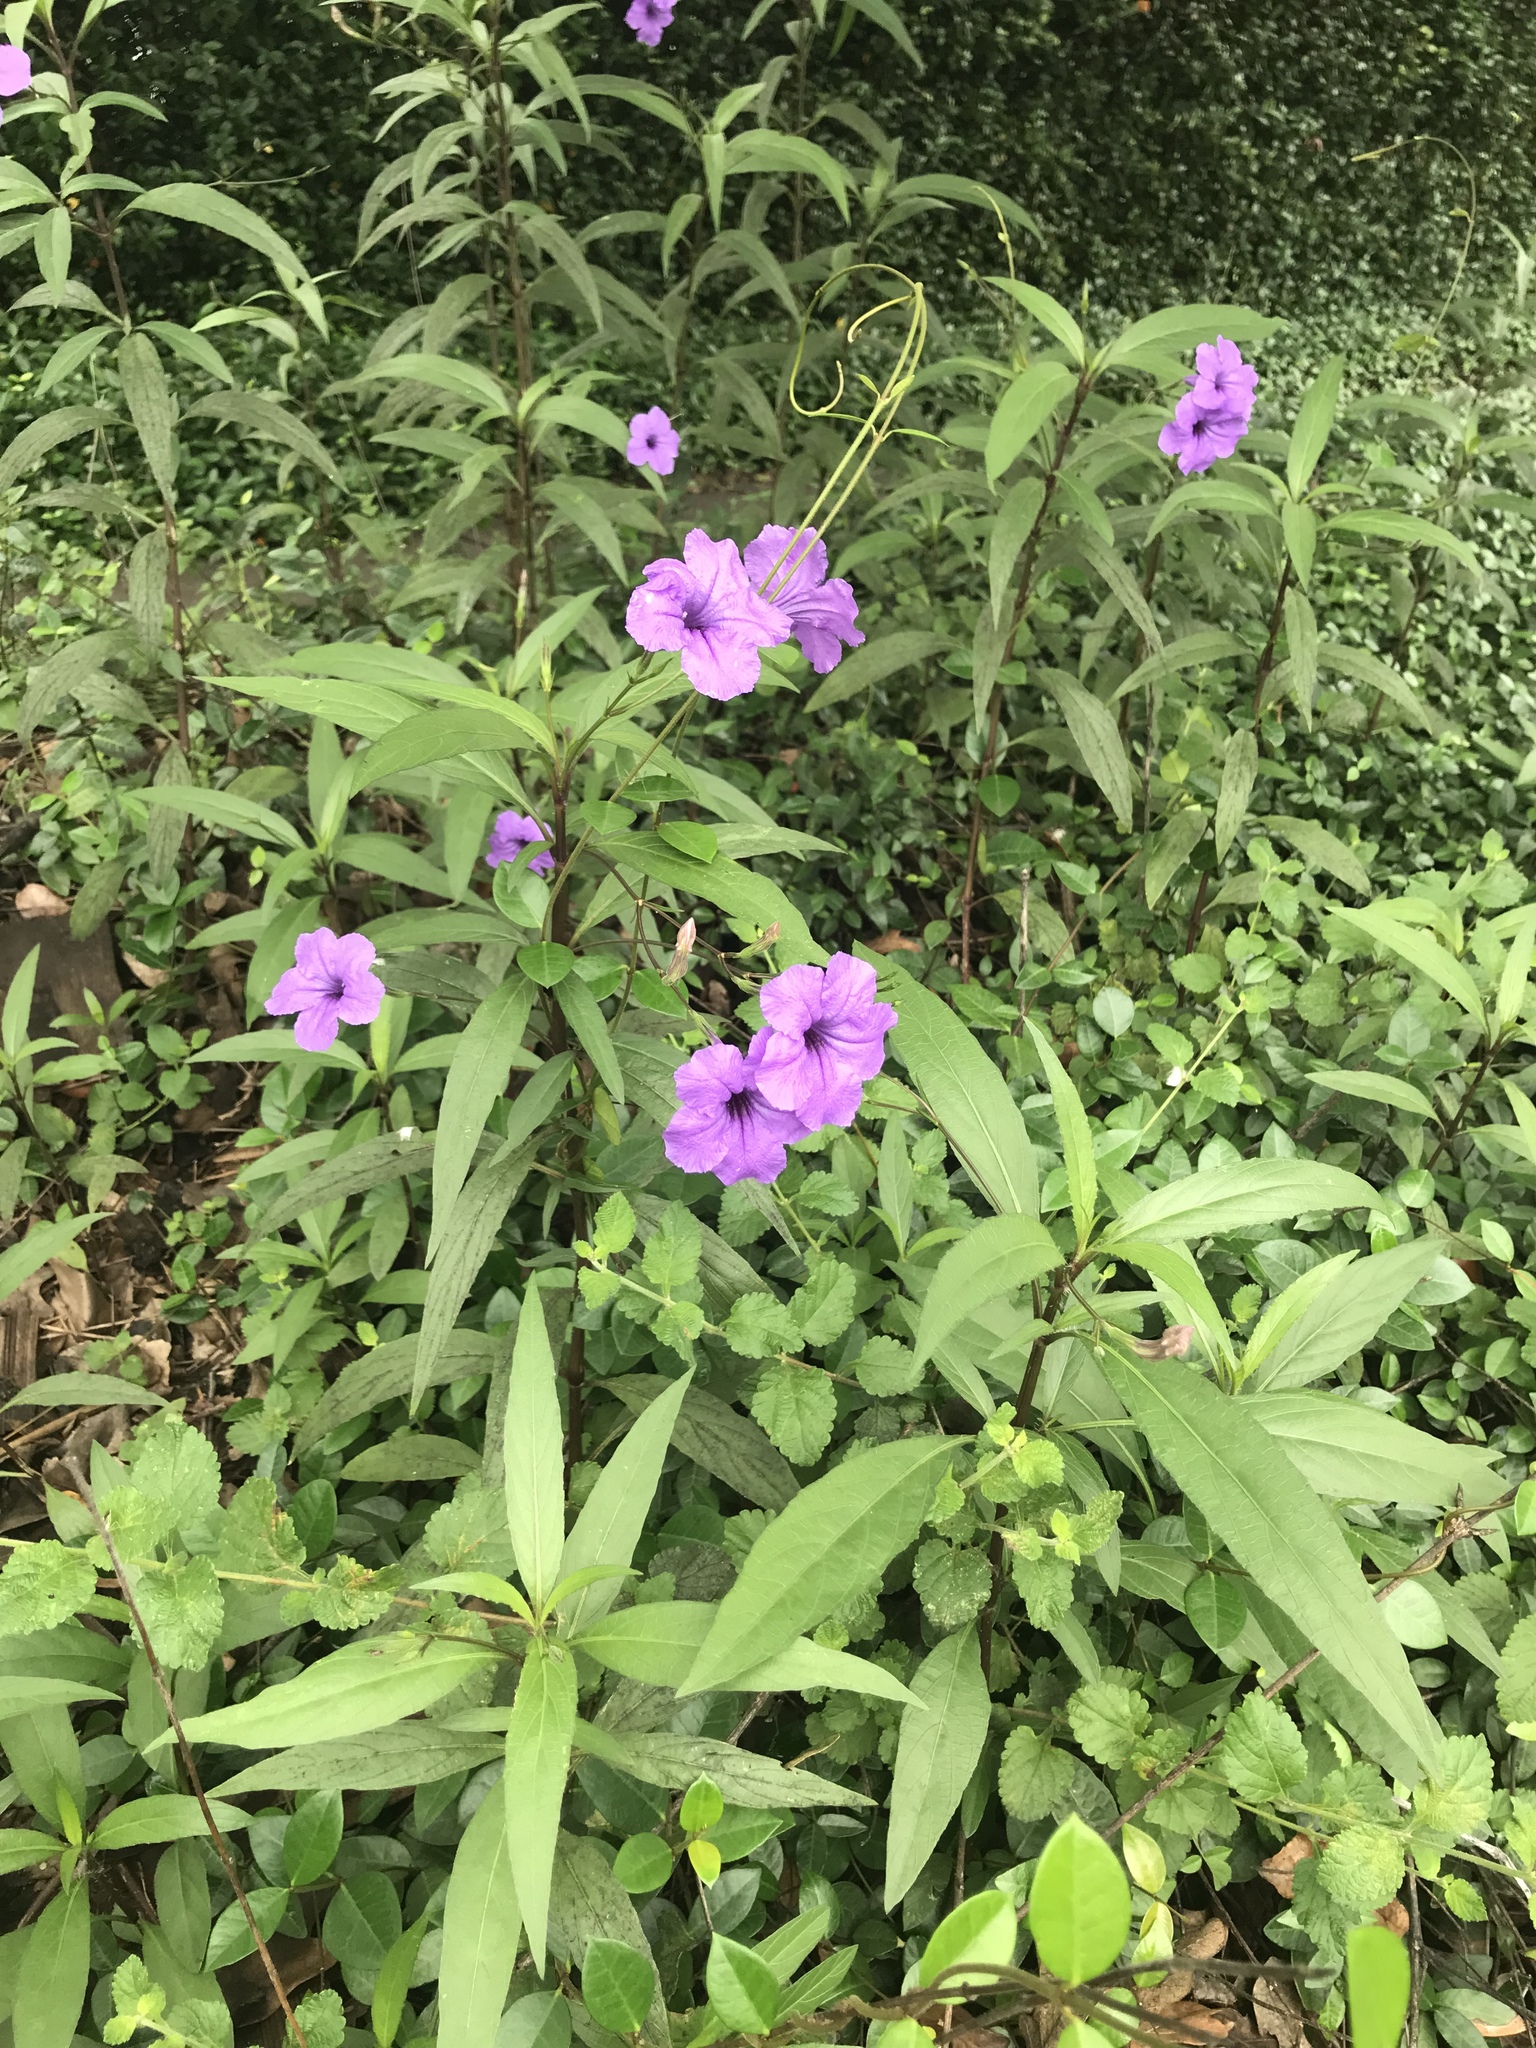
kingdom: Plantae
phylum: Tracheophyta
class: Magnoliopsida
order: Lamiales
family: Acanthaceae
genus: Ruellia
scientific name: Ruellia simplex
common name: Softseed wild petunia
